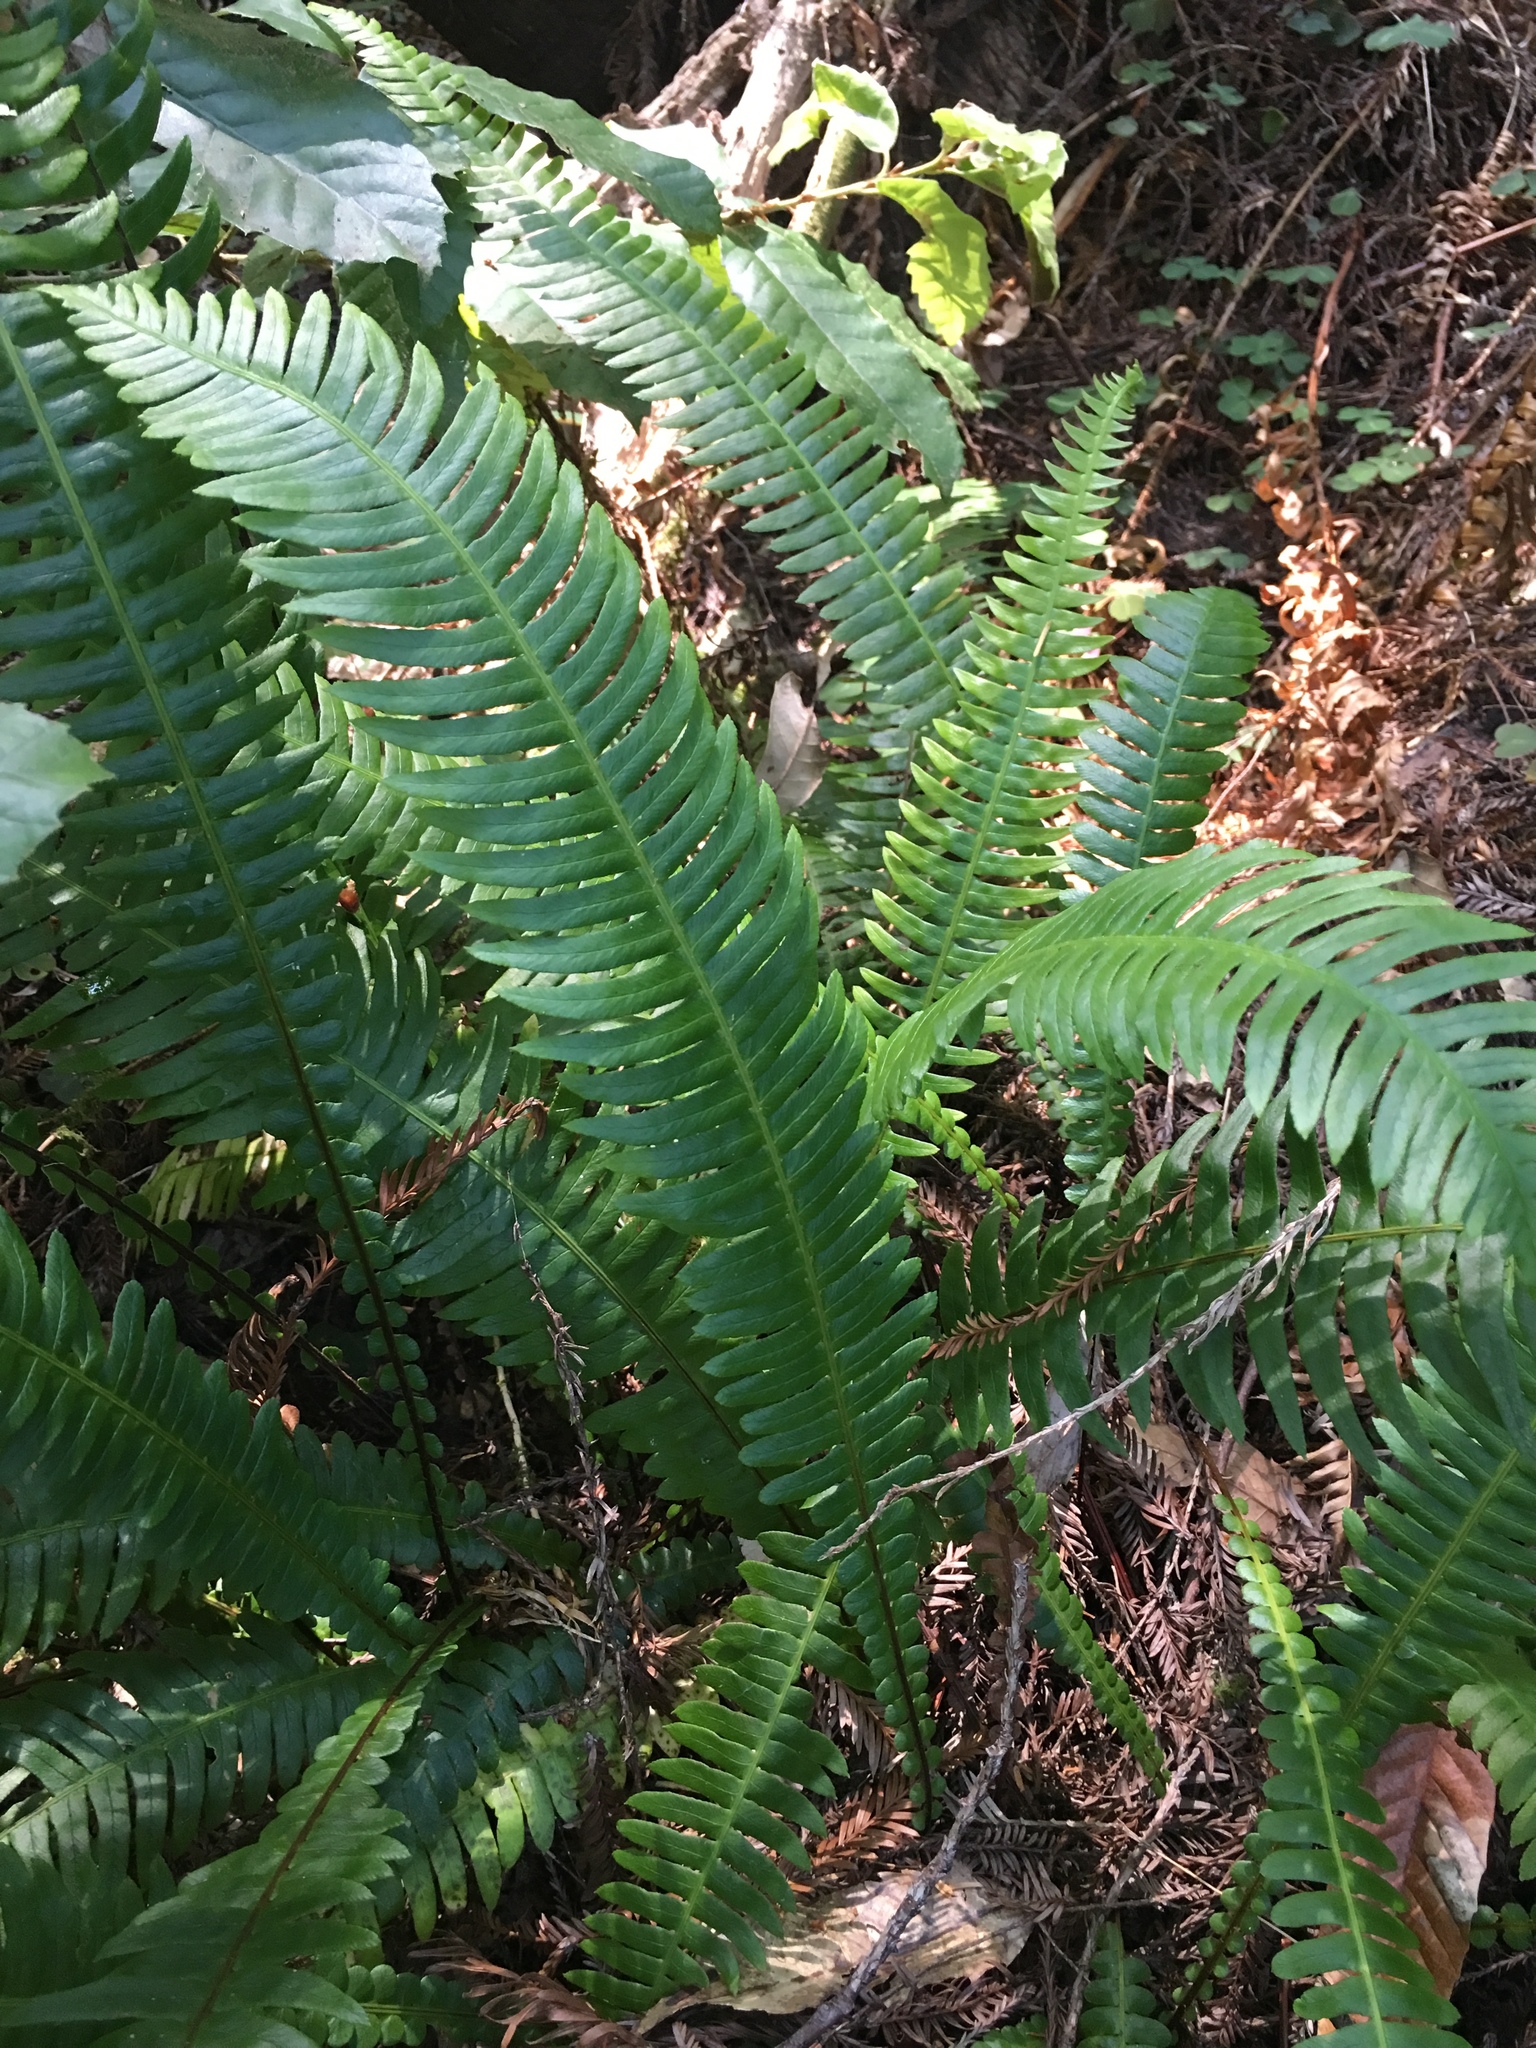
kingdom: Plantae
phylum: Tracheophyta
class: Polypodiopsida
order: Polypodiales
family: Blechnaceae
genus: Struthiopteris
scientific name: Struthiopteris spicant
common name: Deer fern
